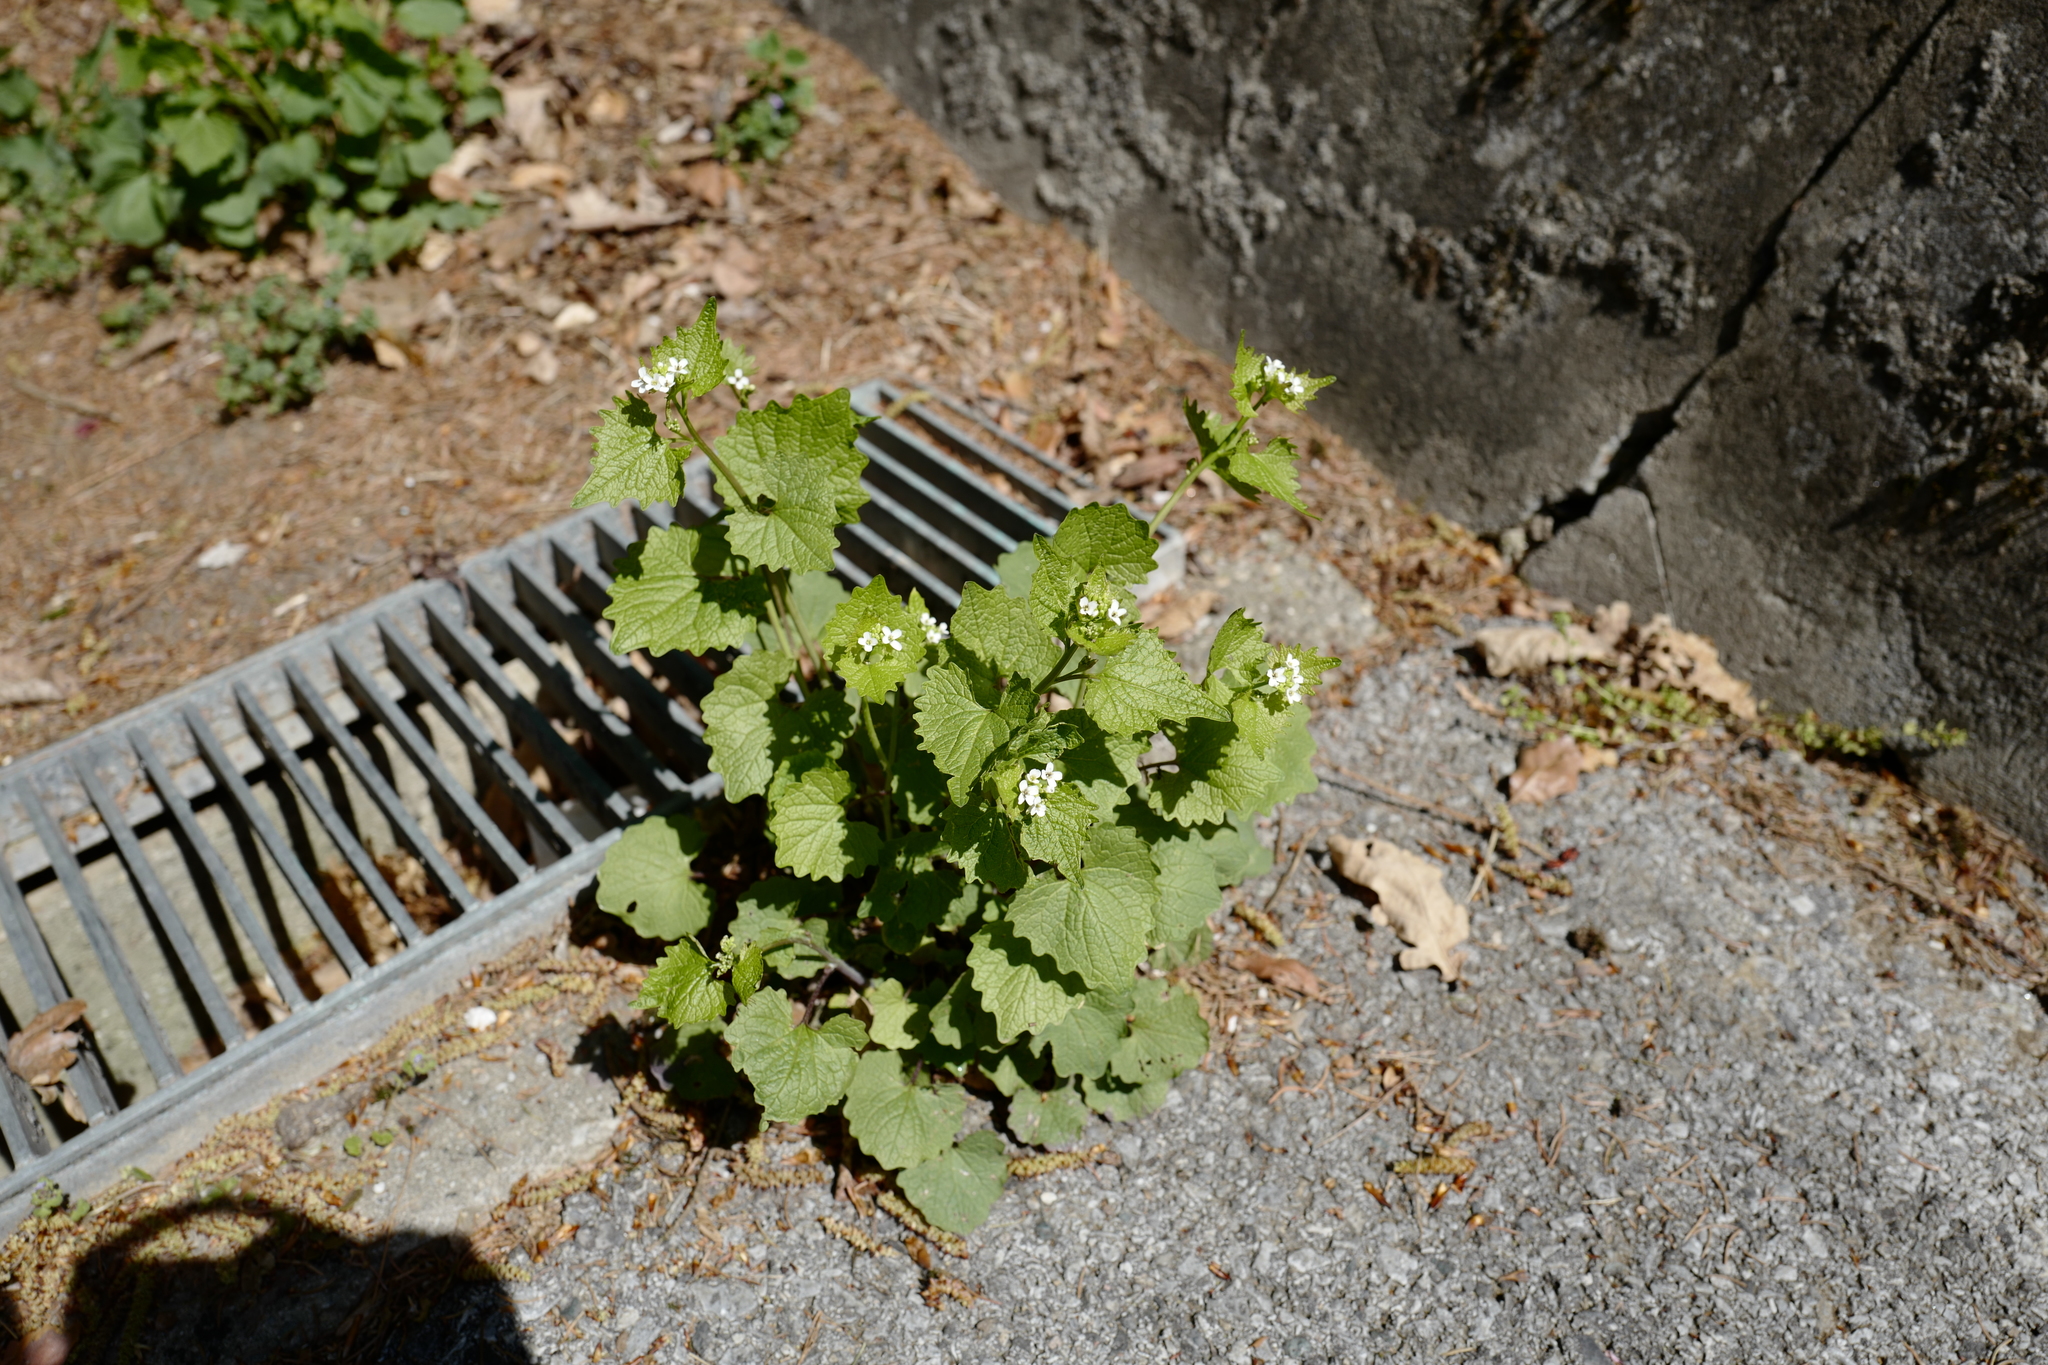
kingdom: Plantae
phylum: Tracheophyta
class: Magnoliopsida
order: Brassicales
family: Brassicaceae
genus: Alliaria
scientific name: Alliaria petiolata
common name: Garlic mustard
